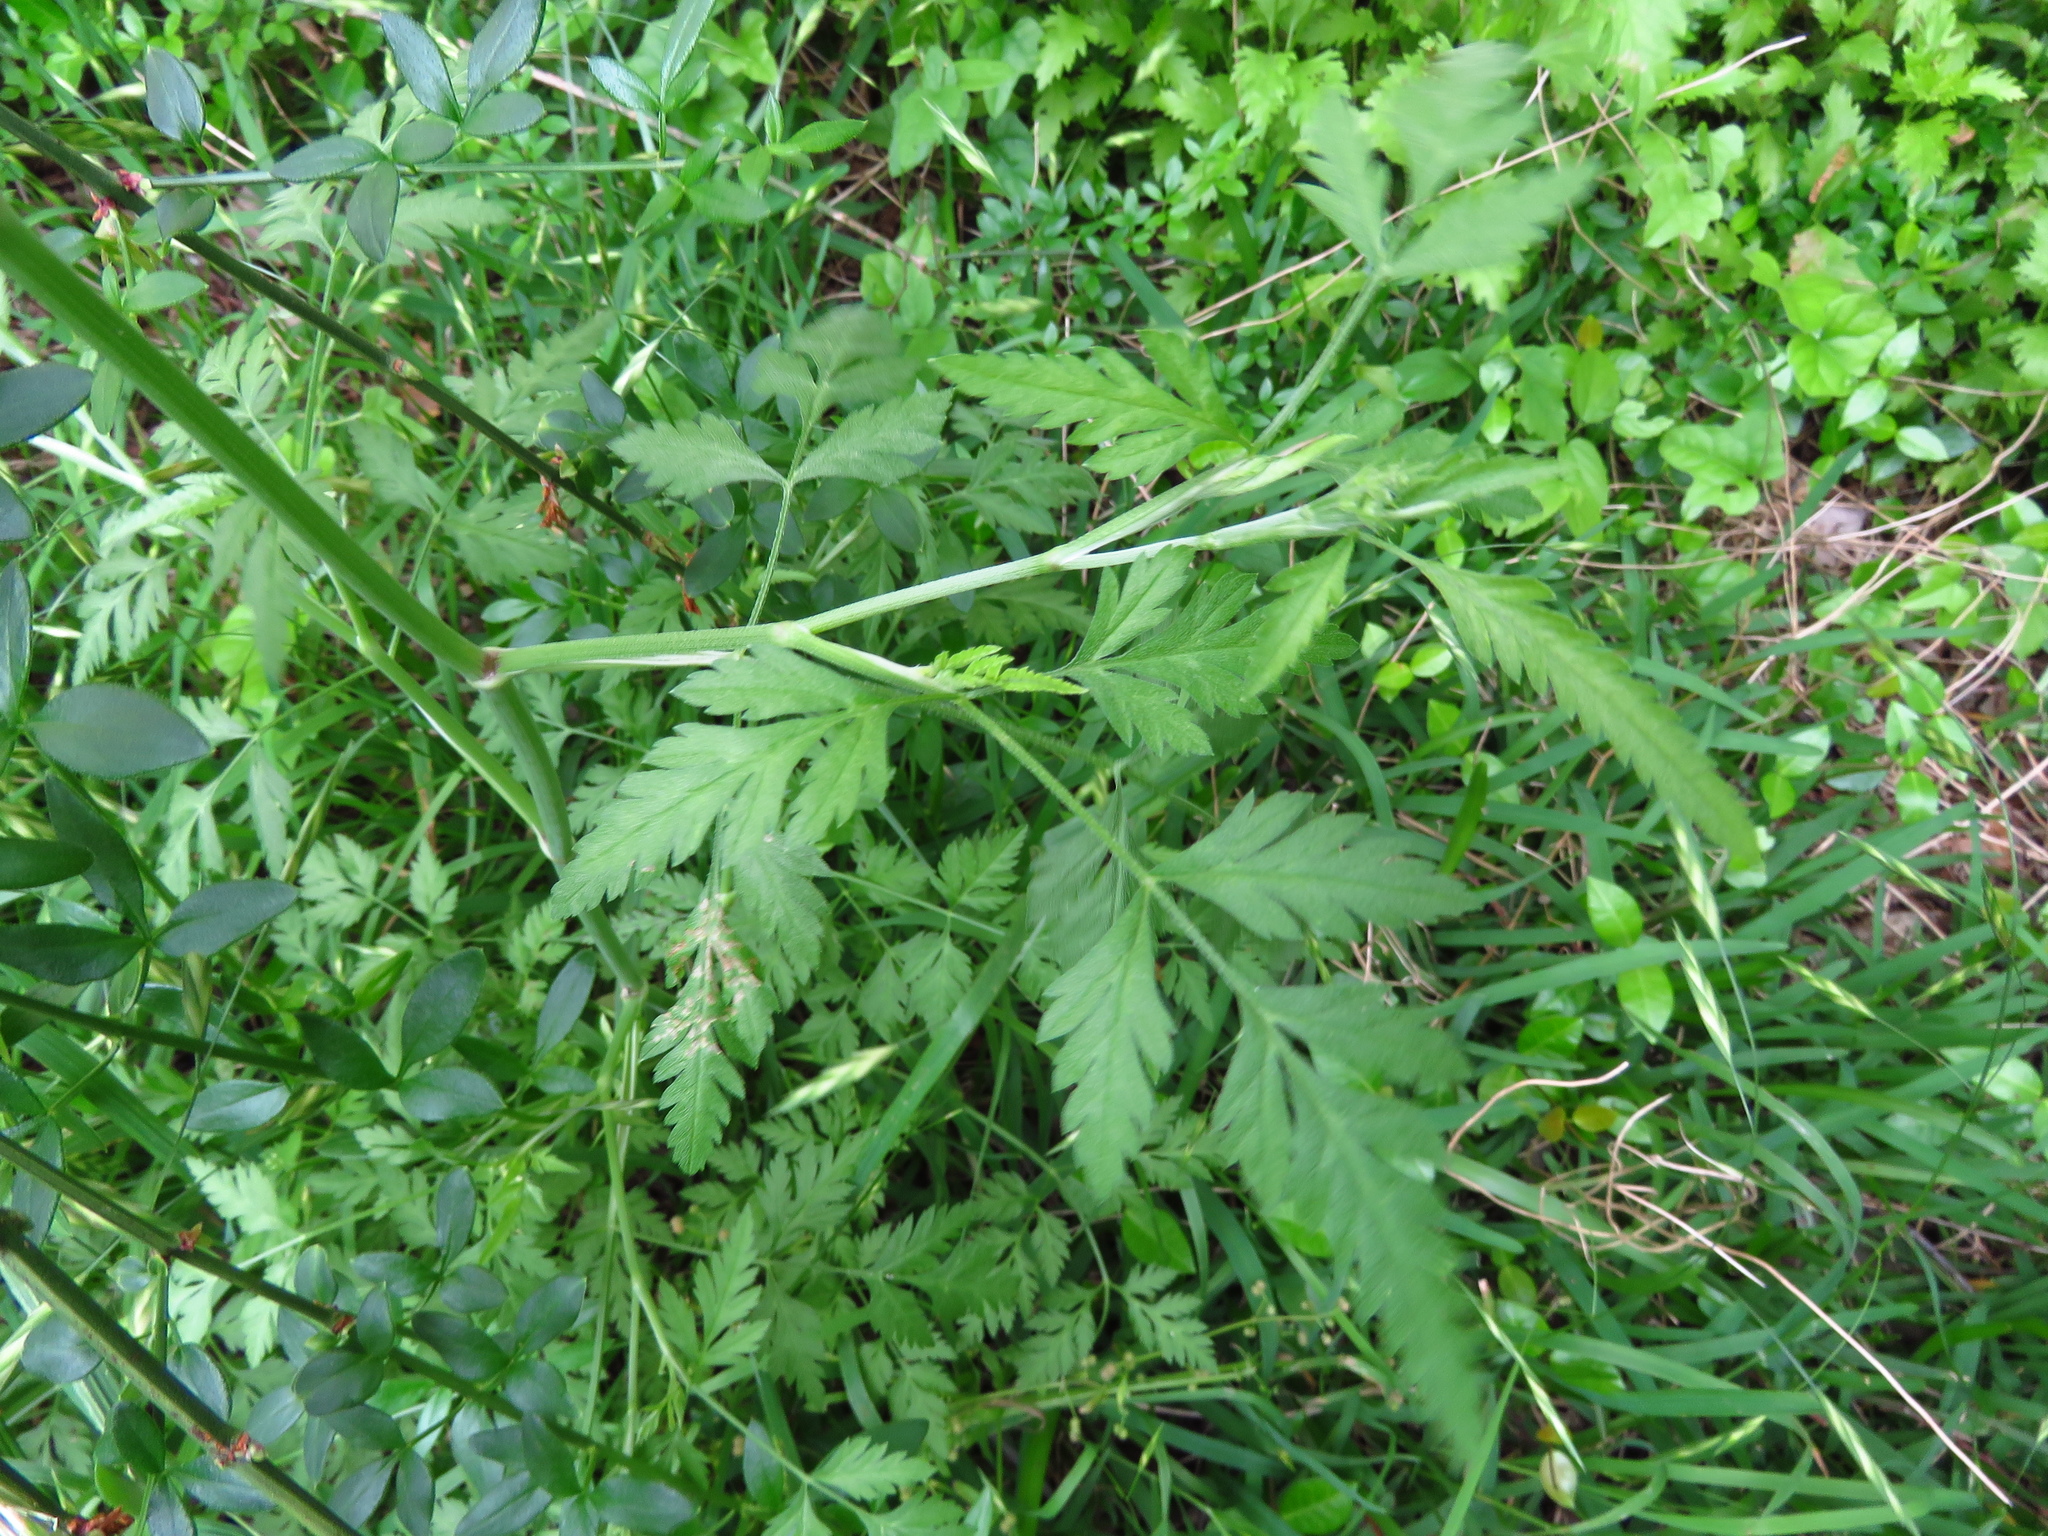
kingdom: Plantae
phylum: Tracheophyta
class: Magnoliopsida
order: Apiales
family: Apiaceae
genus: Torilis
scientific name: Torilis arvensis
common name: Spreading hedge-parsley
